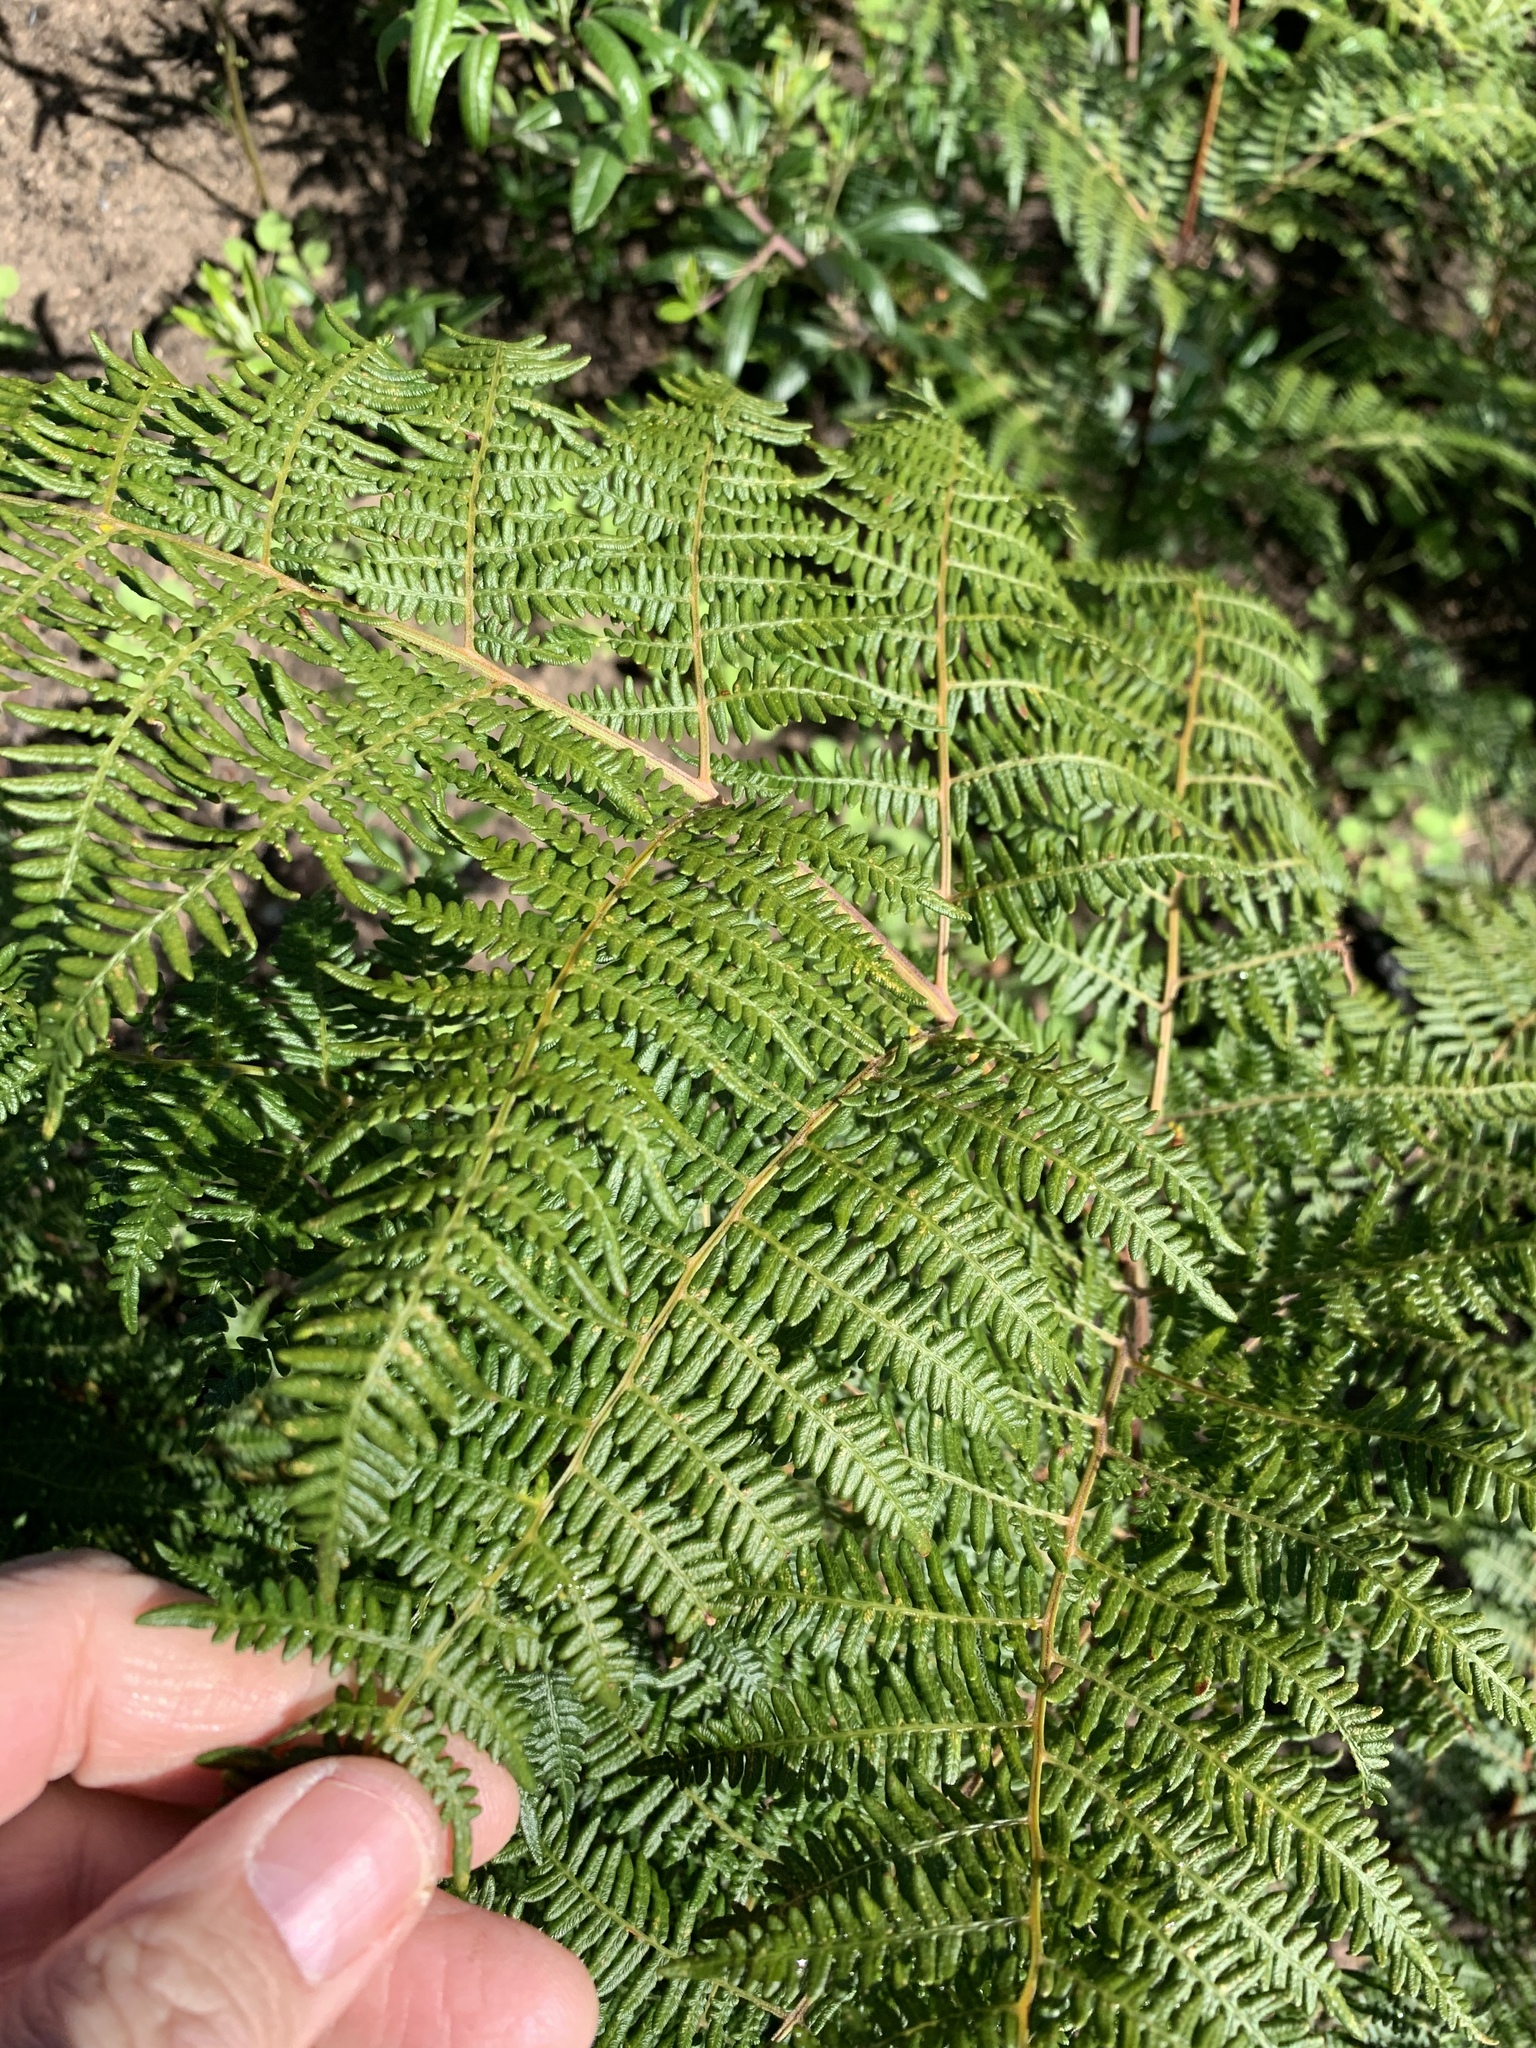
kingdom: Plantae
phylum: Tracheophyta
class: Polypodiopsida
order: Polypodiales
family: Dennstaedtiaceae
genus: Pteridium
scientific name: Pteridium aquilinum
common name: Bracken
